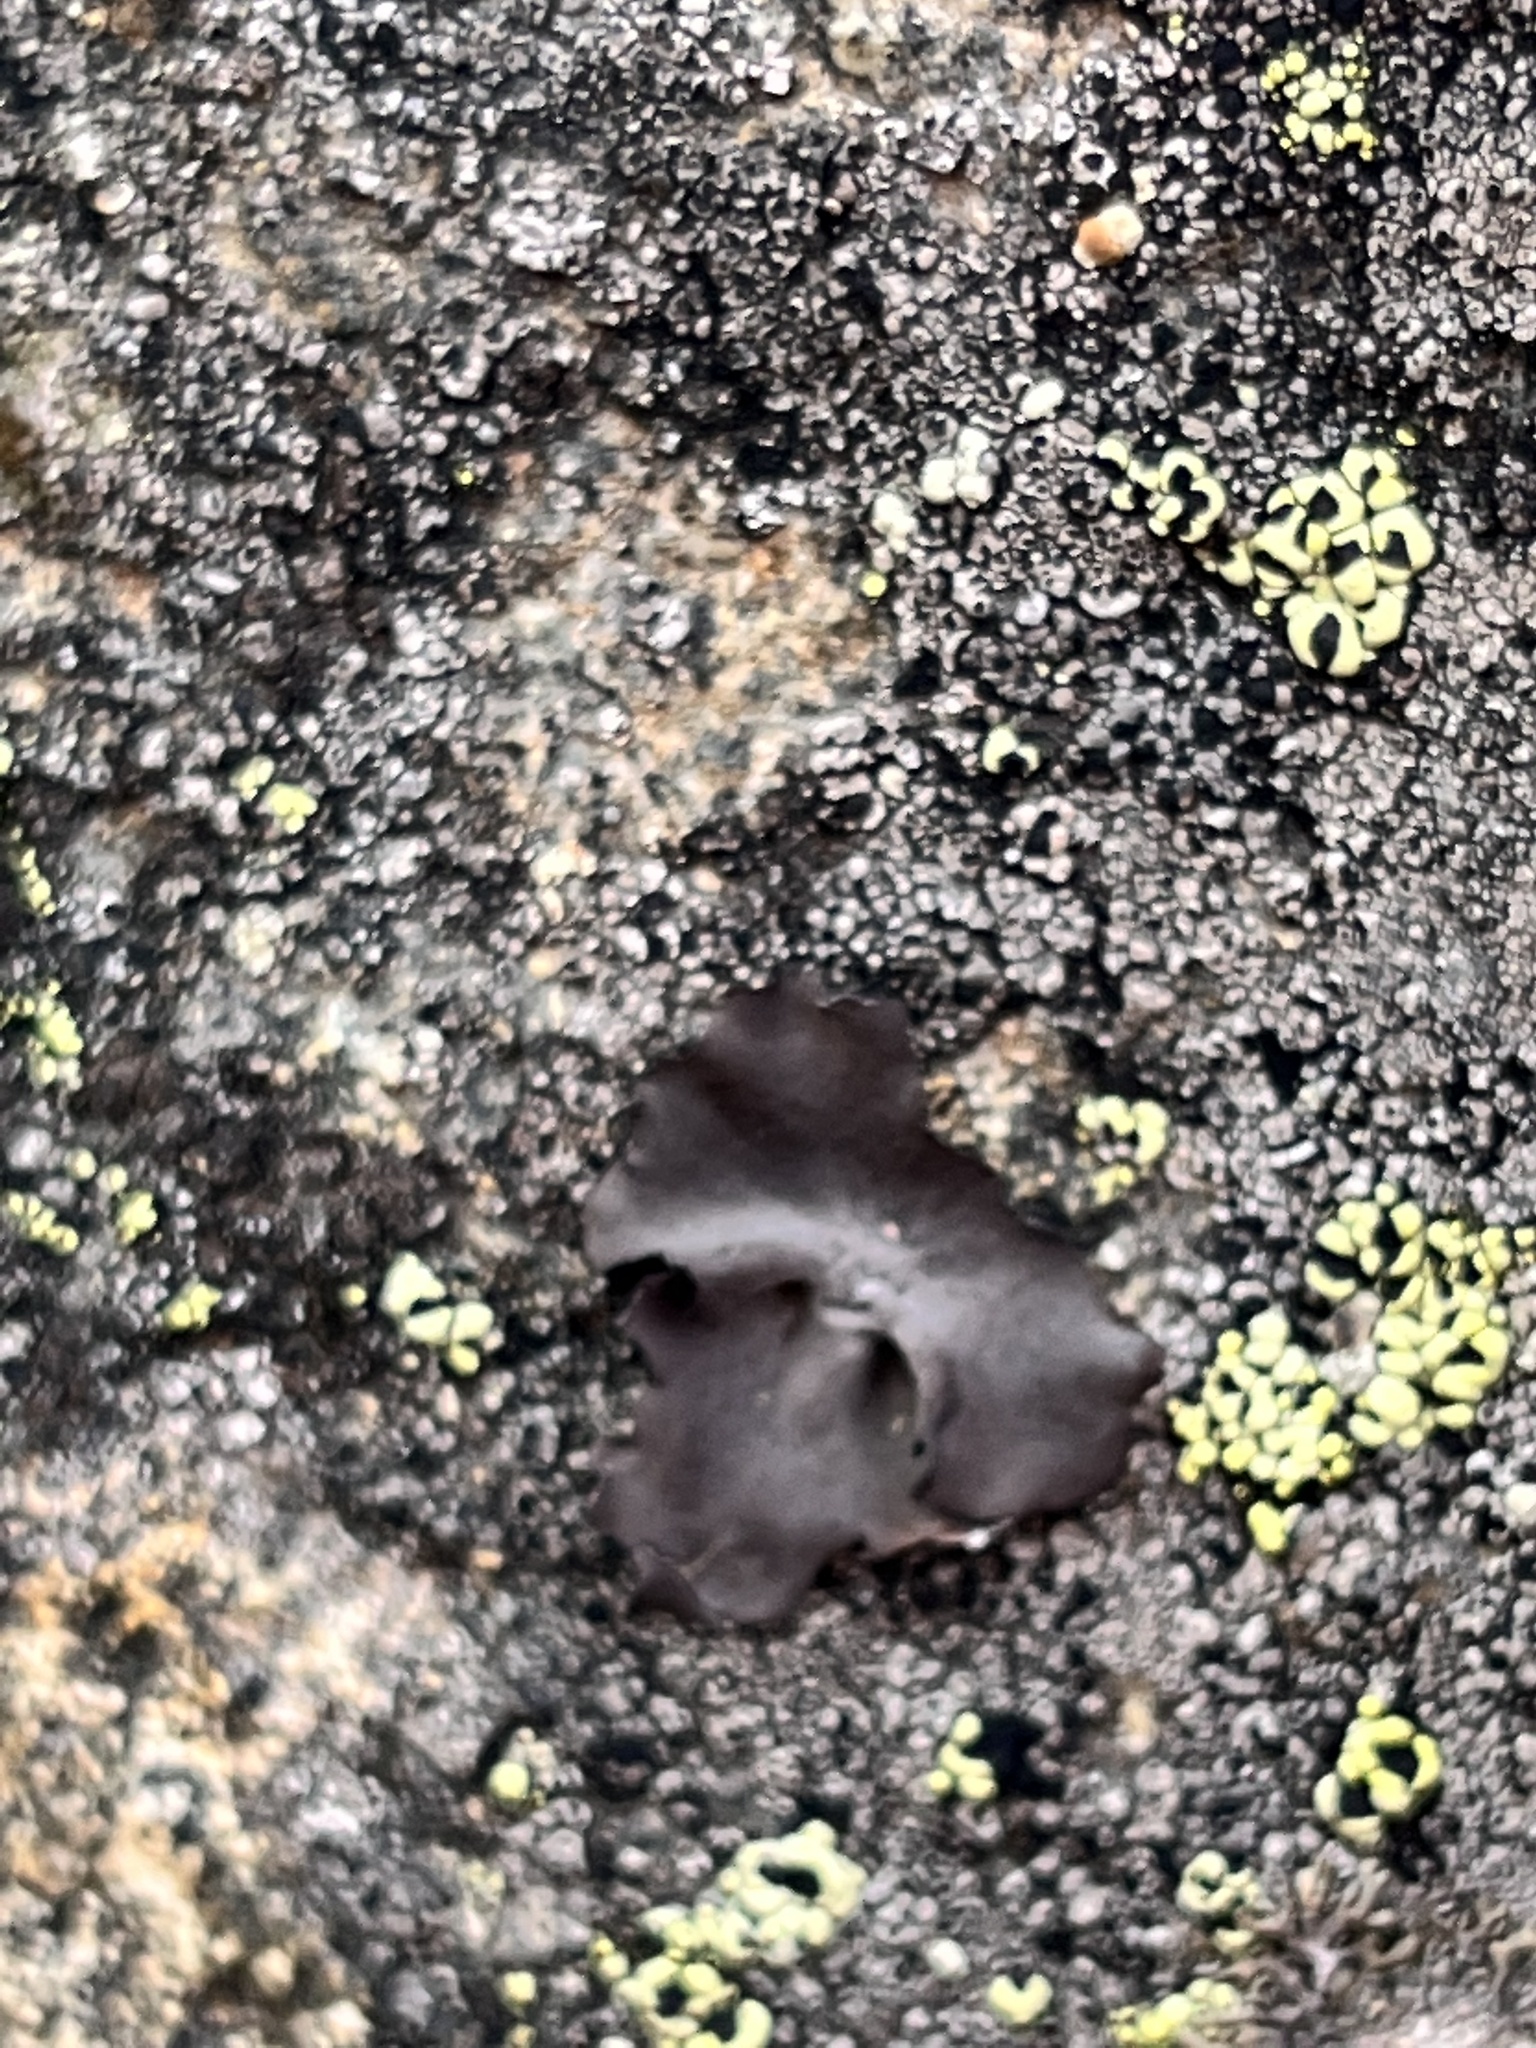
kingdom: Fungi
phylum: Ascomycota
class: Lecanoromycetes
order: Umbilicariales
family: Umbilicariaceae
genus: Umbilicaria
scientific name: Umbilicaria polyphylla
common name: Petalled rocktripe lichen
